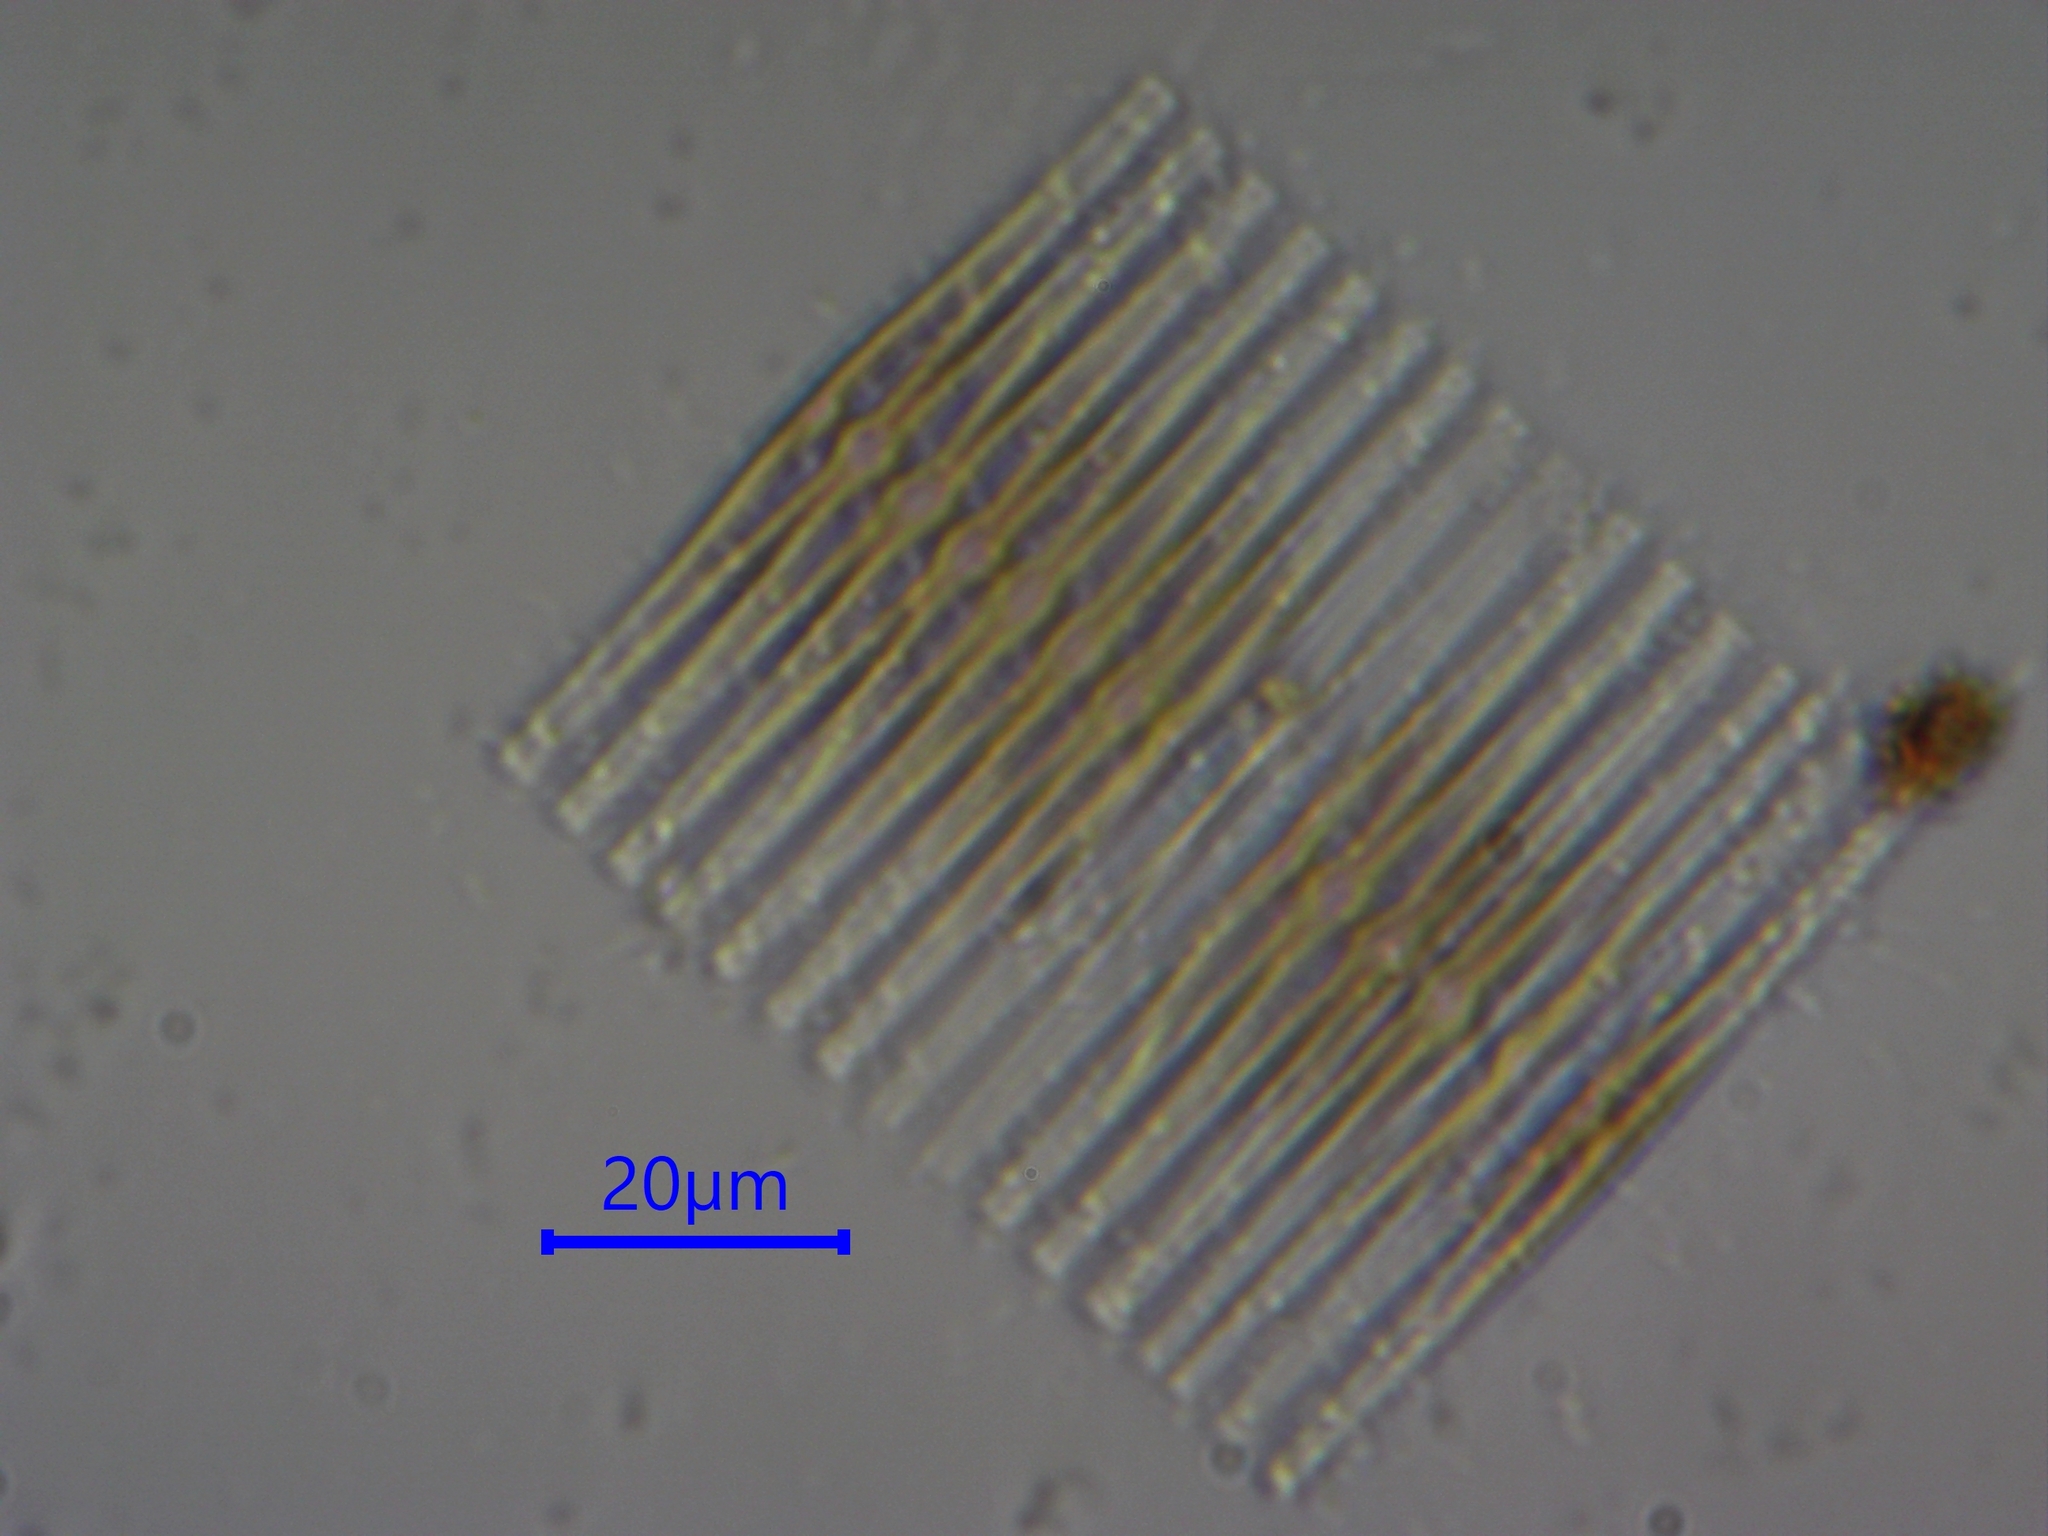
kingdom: Chromista
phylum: Ochrophyta
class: Bacillariophyceae
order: Fragilariales
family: Fragilariaceae
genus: Fragilaria
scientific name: Fragilaria
